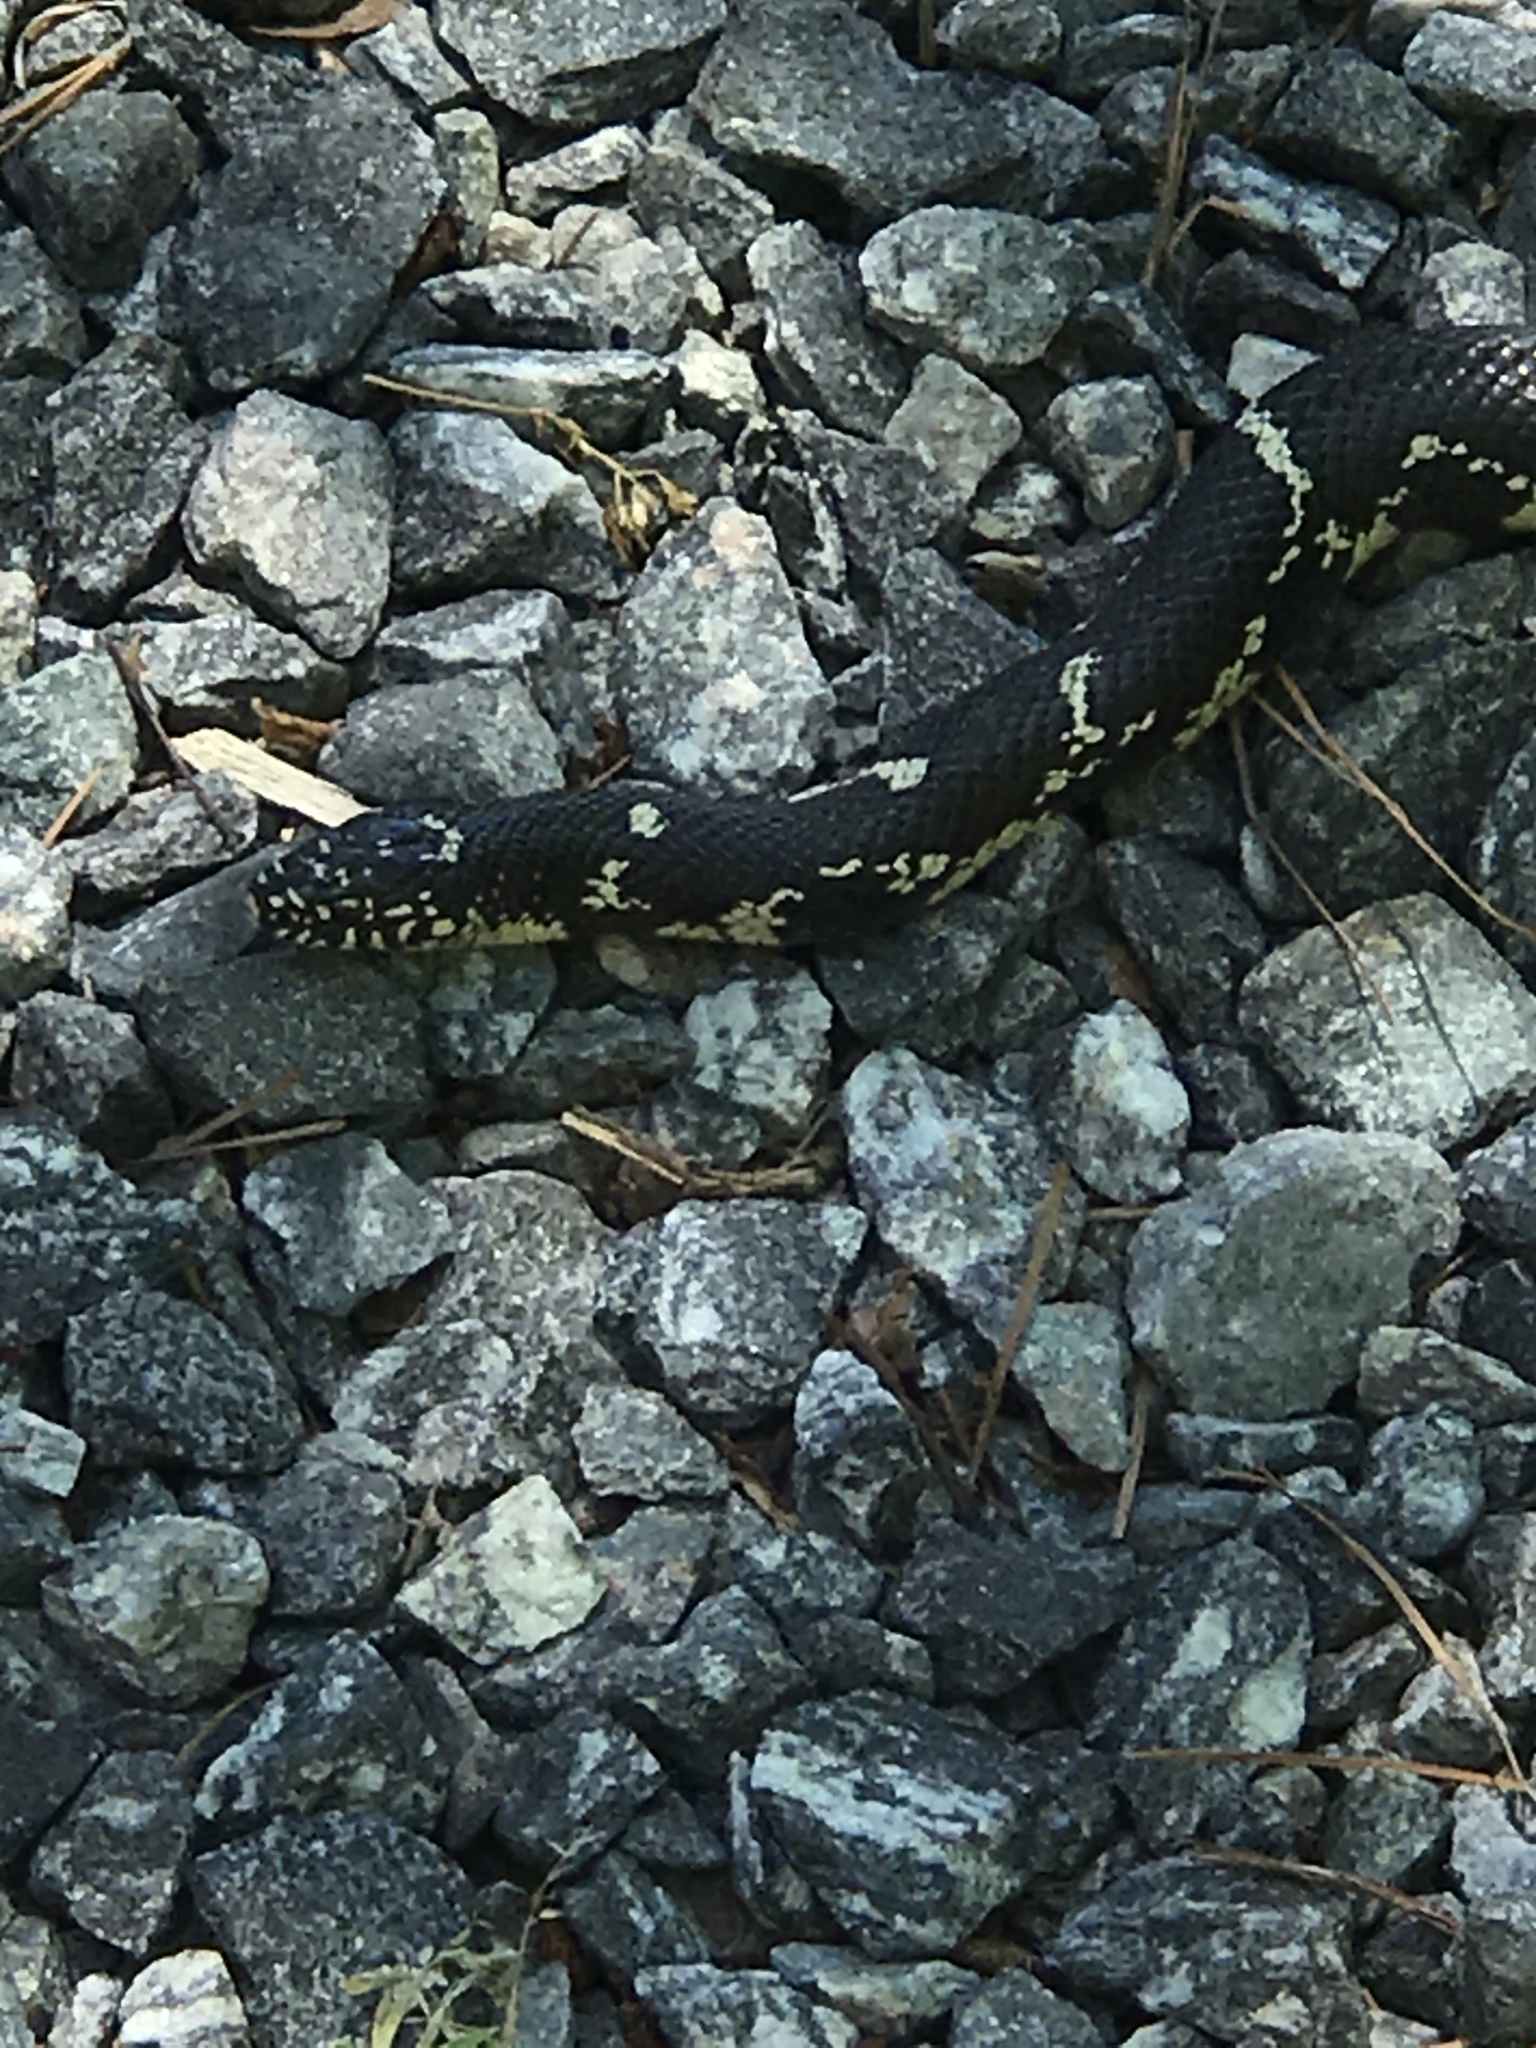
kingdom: Animalia
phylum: Chordata
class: Squamata
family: Colubridae
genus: Lampropeltis
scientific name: Lampropeltis getula
